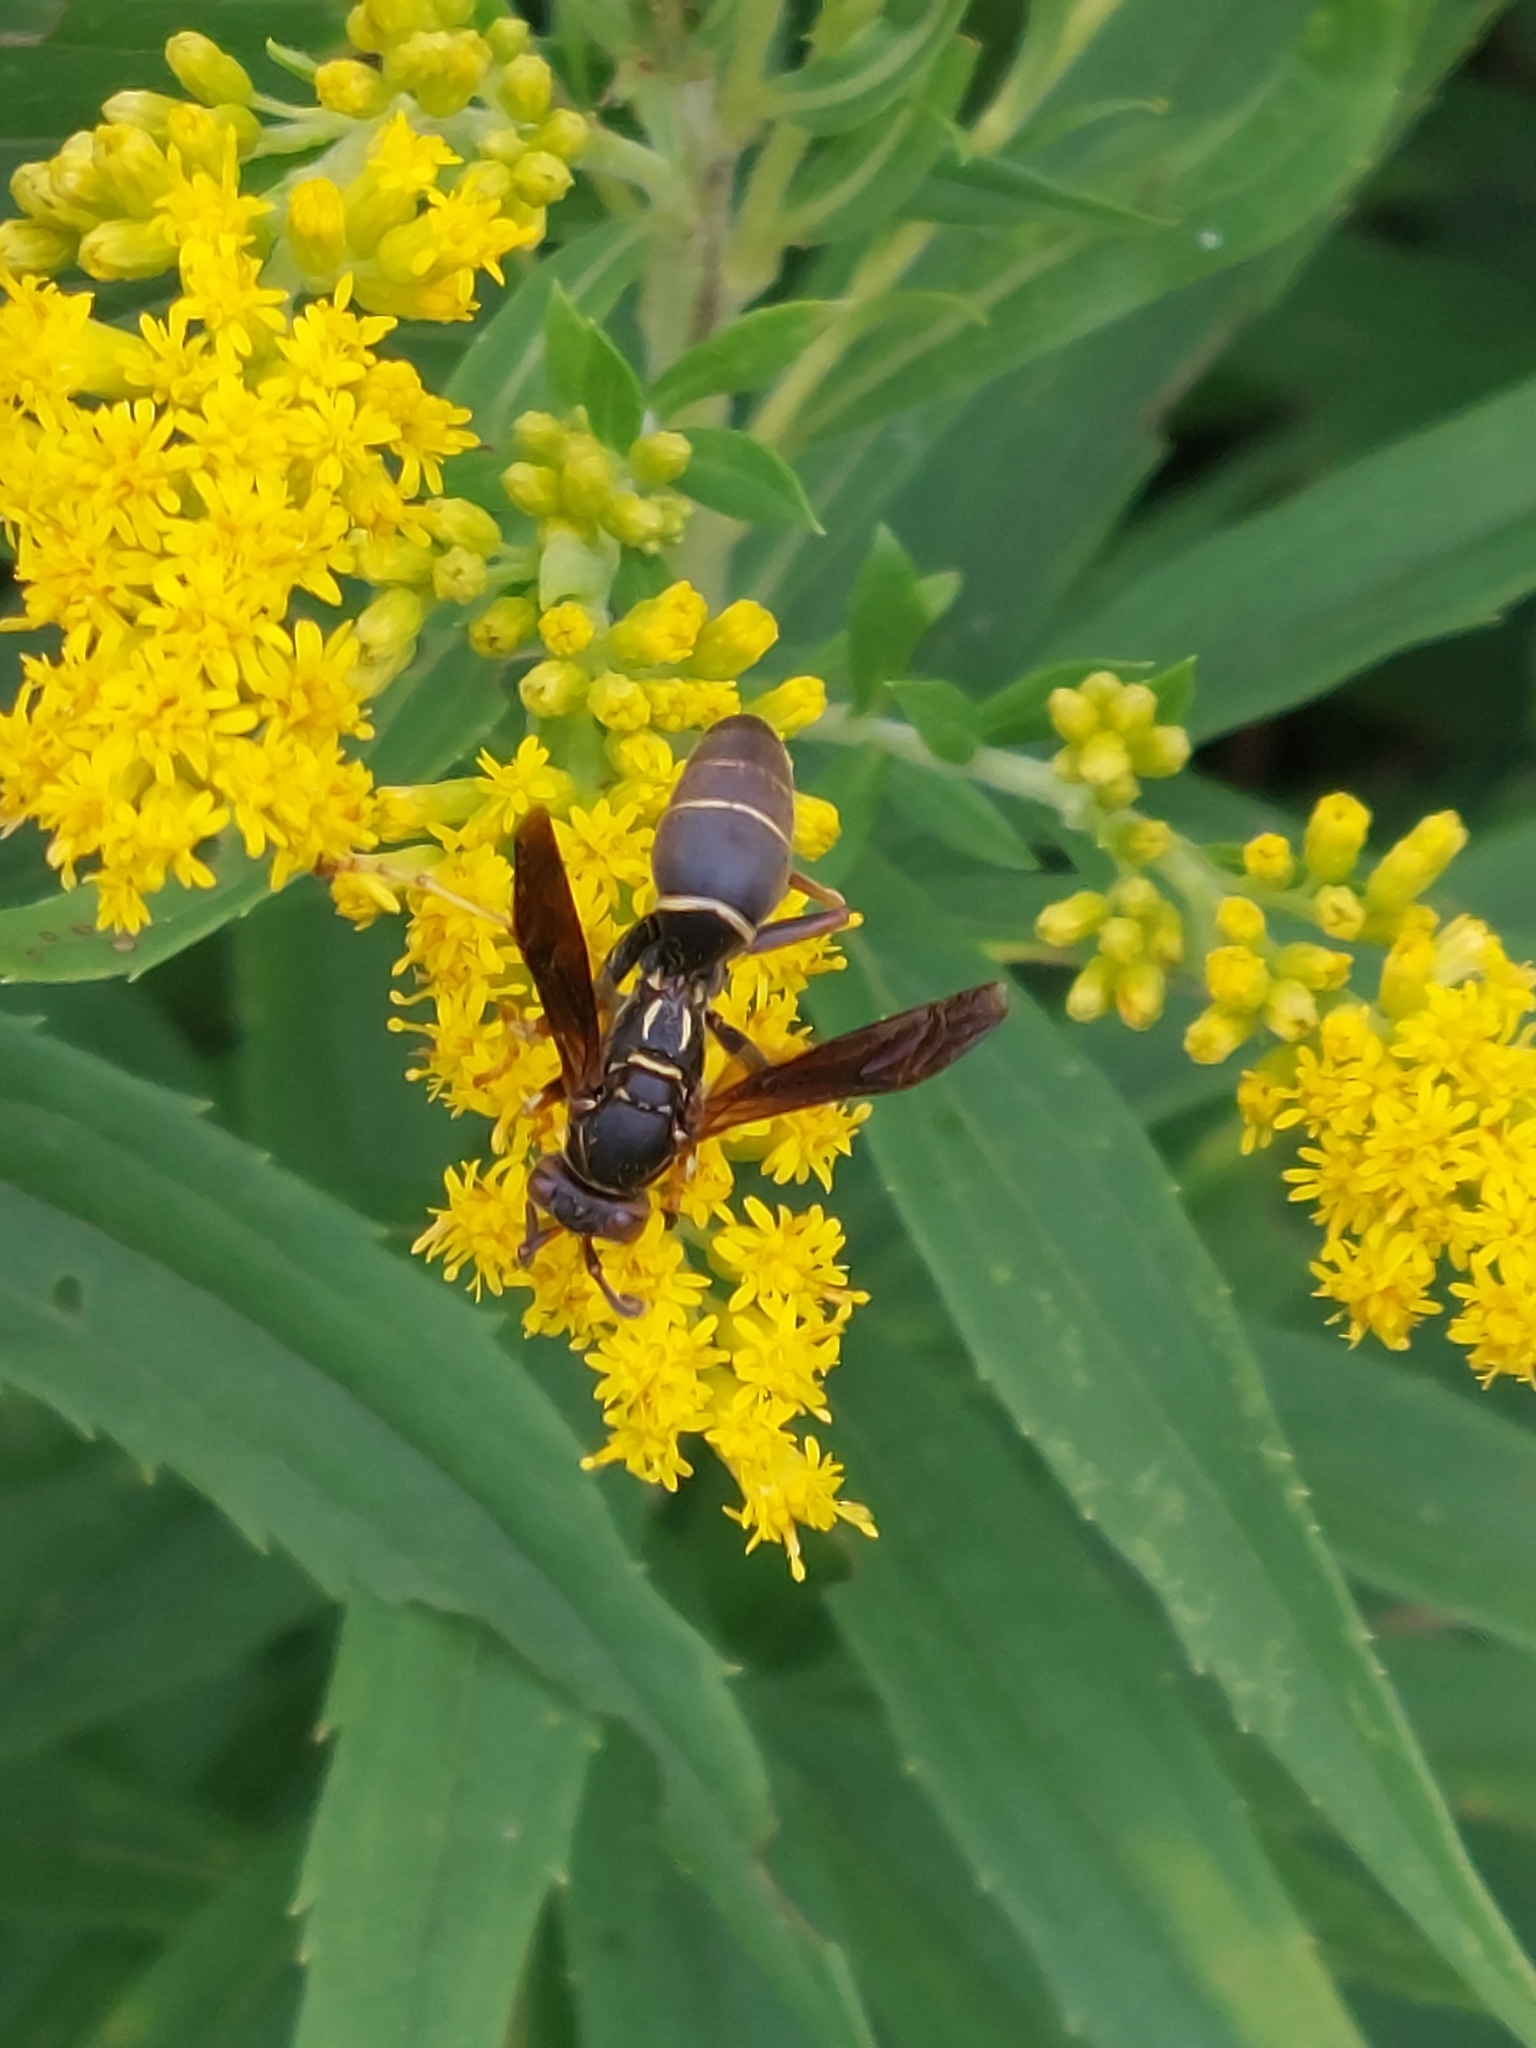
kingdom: Animalia
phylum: Arthropoda
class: Insecta
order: Hymenoptera
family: Eumenidae
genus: Polistes
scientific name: Polistes fuscatus
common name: Dark paper wasp
